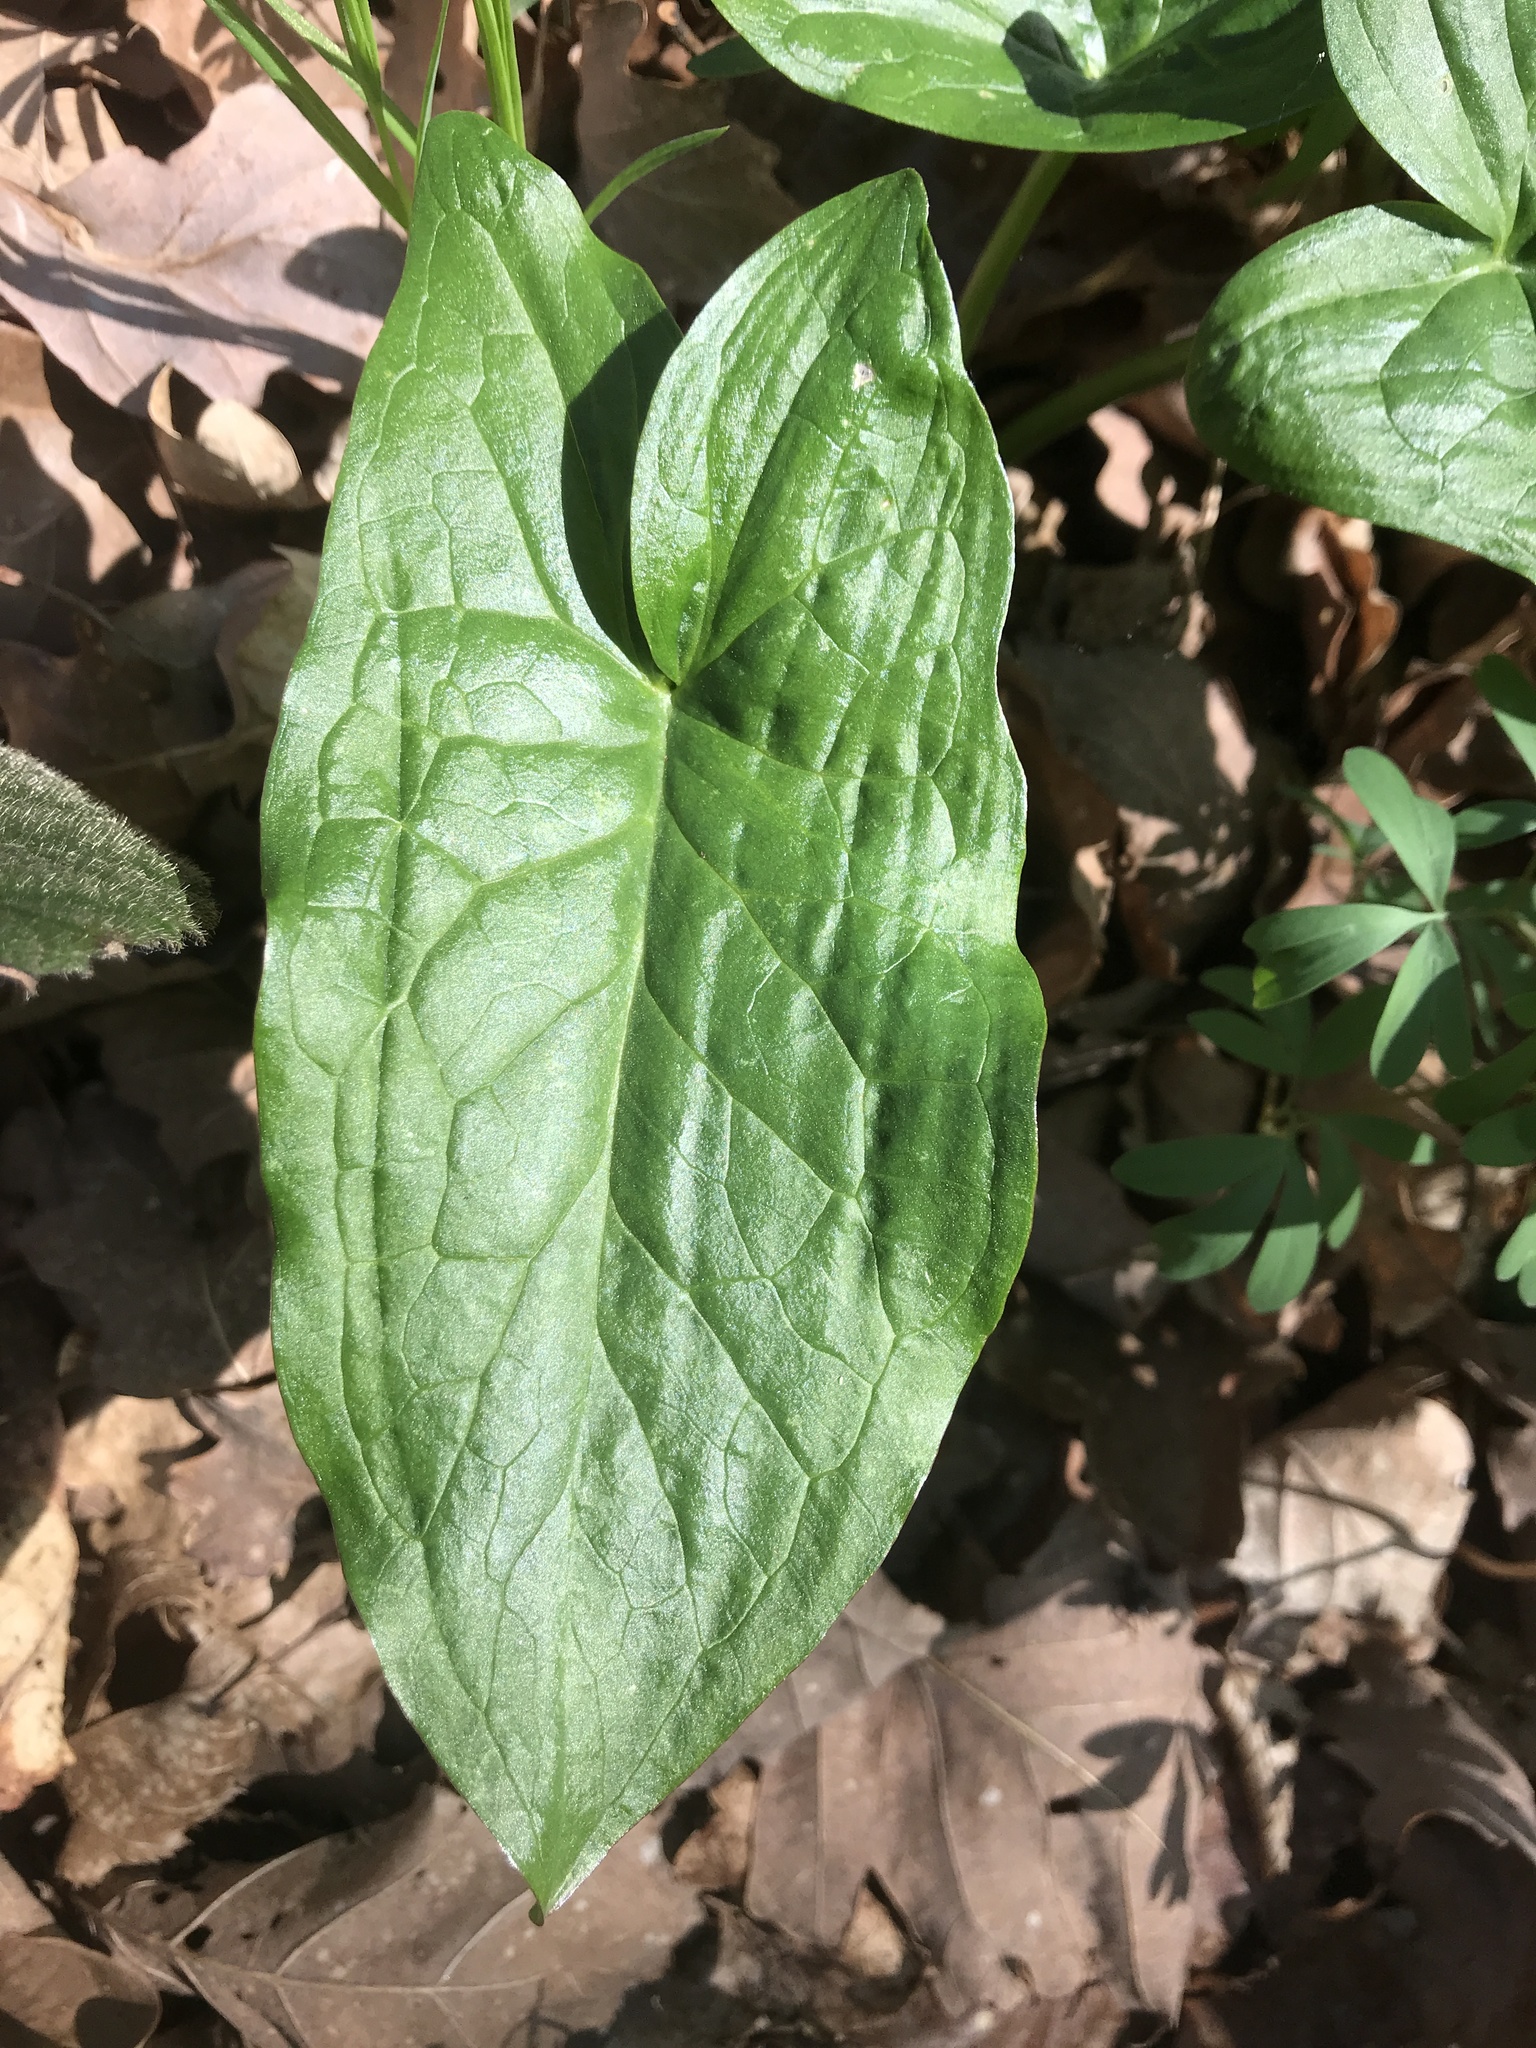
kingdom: Plantae
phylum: Tracheophyta
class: Liliopsida
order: Alismatales
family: Araceae
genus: Arum
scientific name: Arum maculatum
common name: Lords-and-ladies
